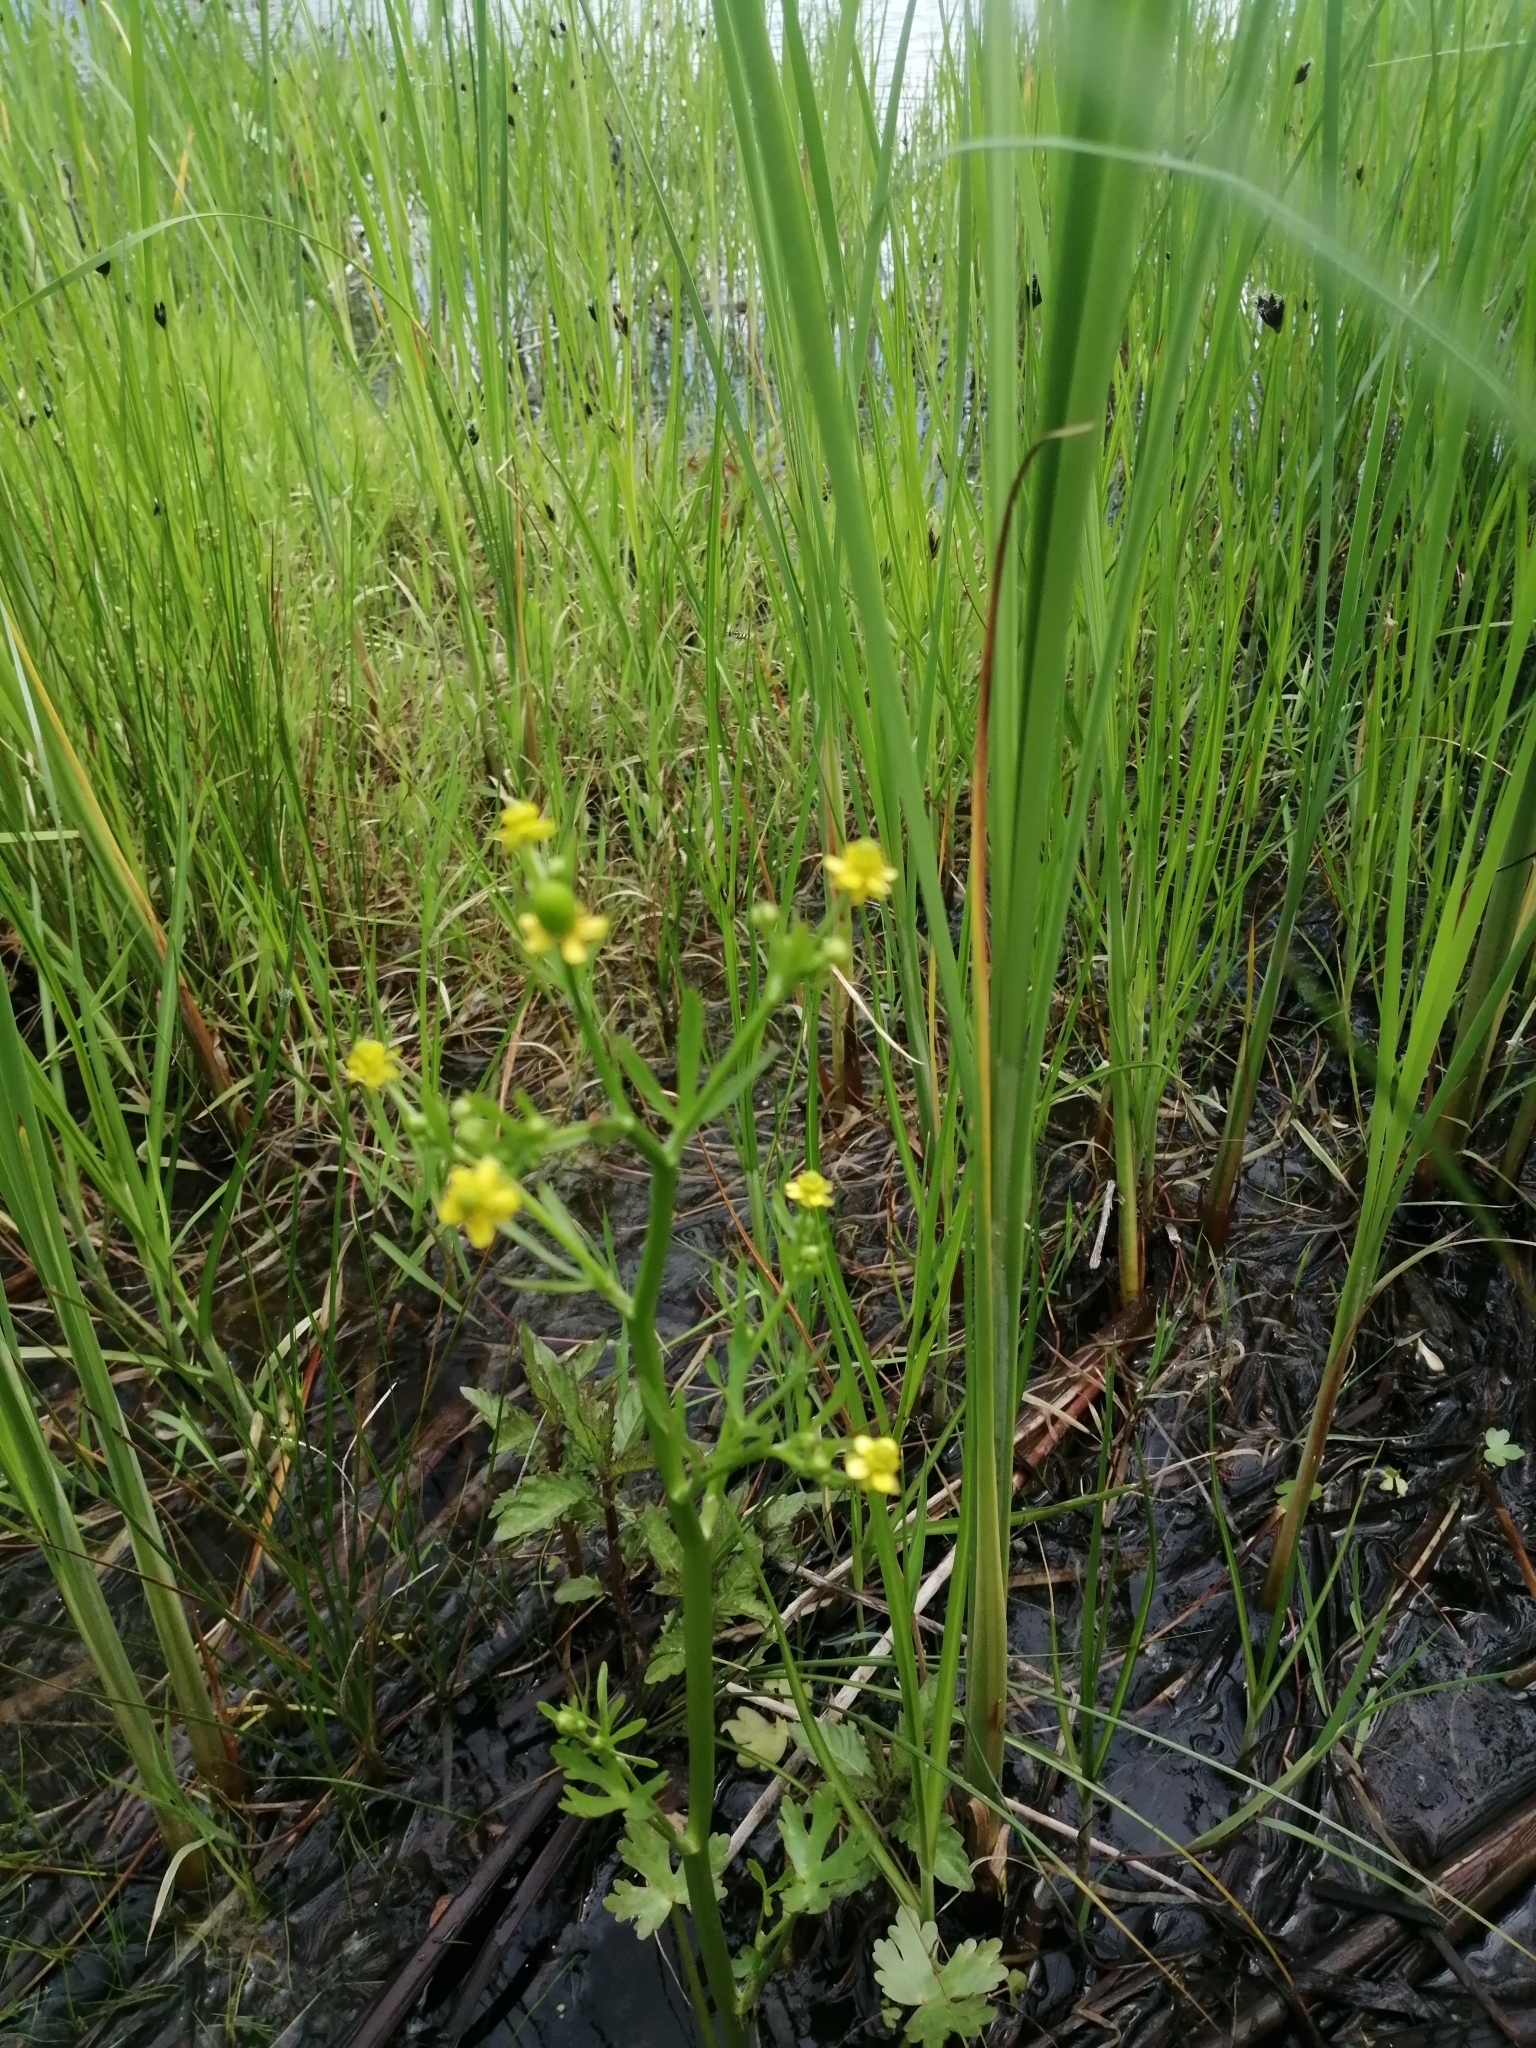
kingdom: Plantae
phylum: Tracheophyta
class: Magnoliopsida
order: Ranunculales
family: Ranunculaceae
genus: Ranunculus
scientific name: Ranunculus sceleratus
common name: Celery-leaved buttercup
